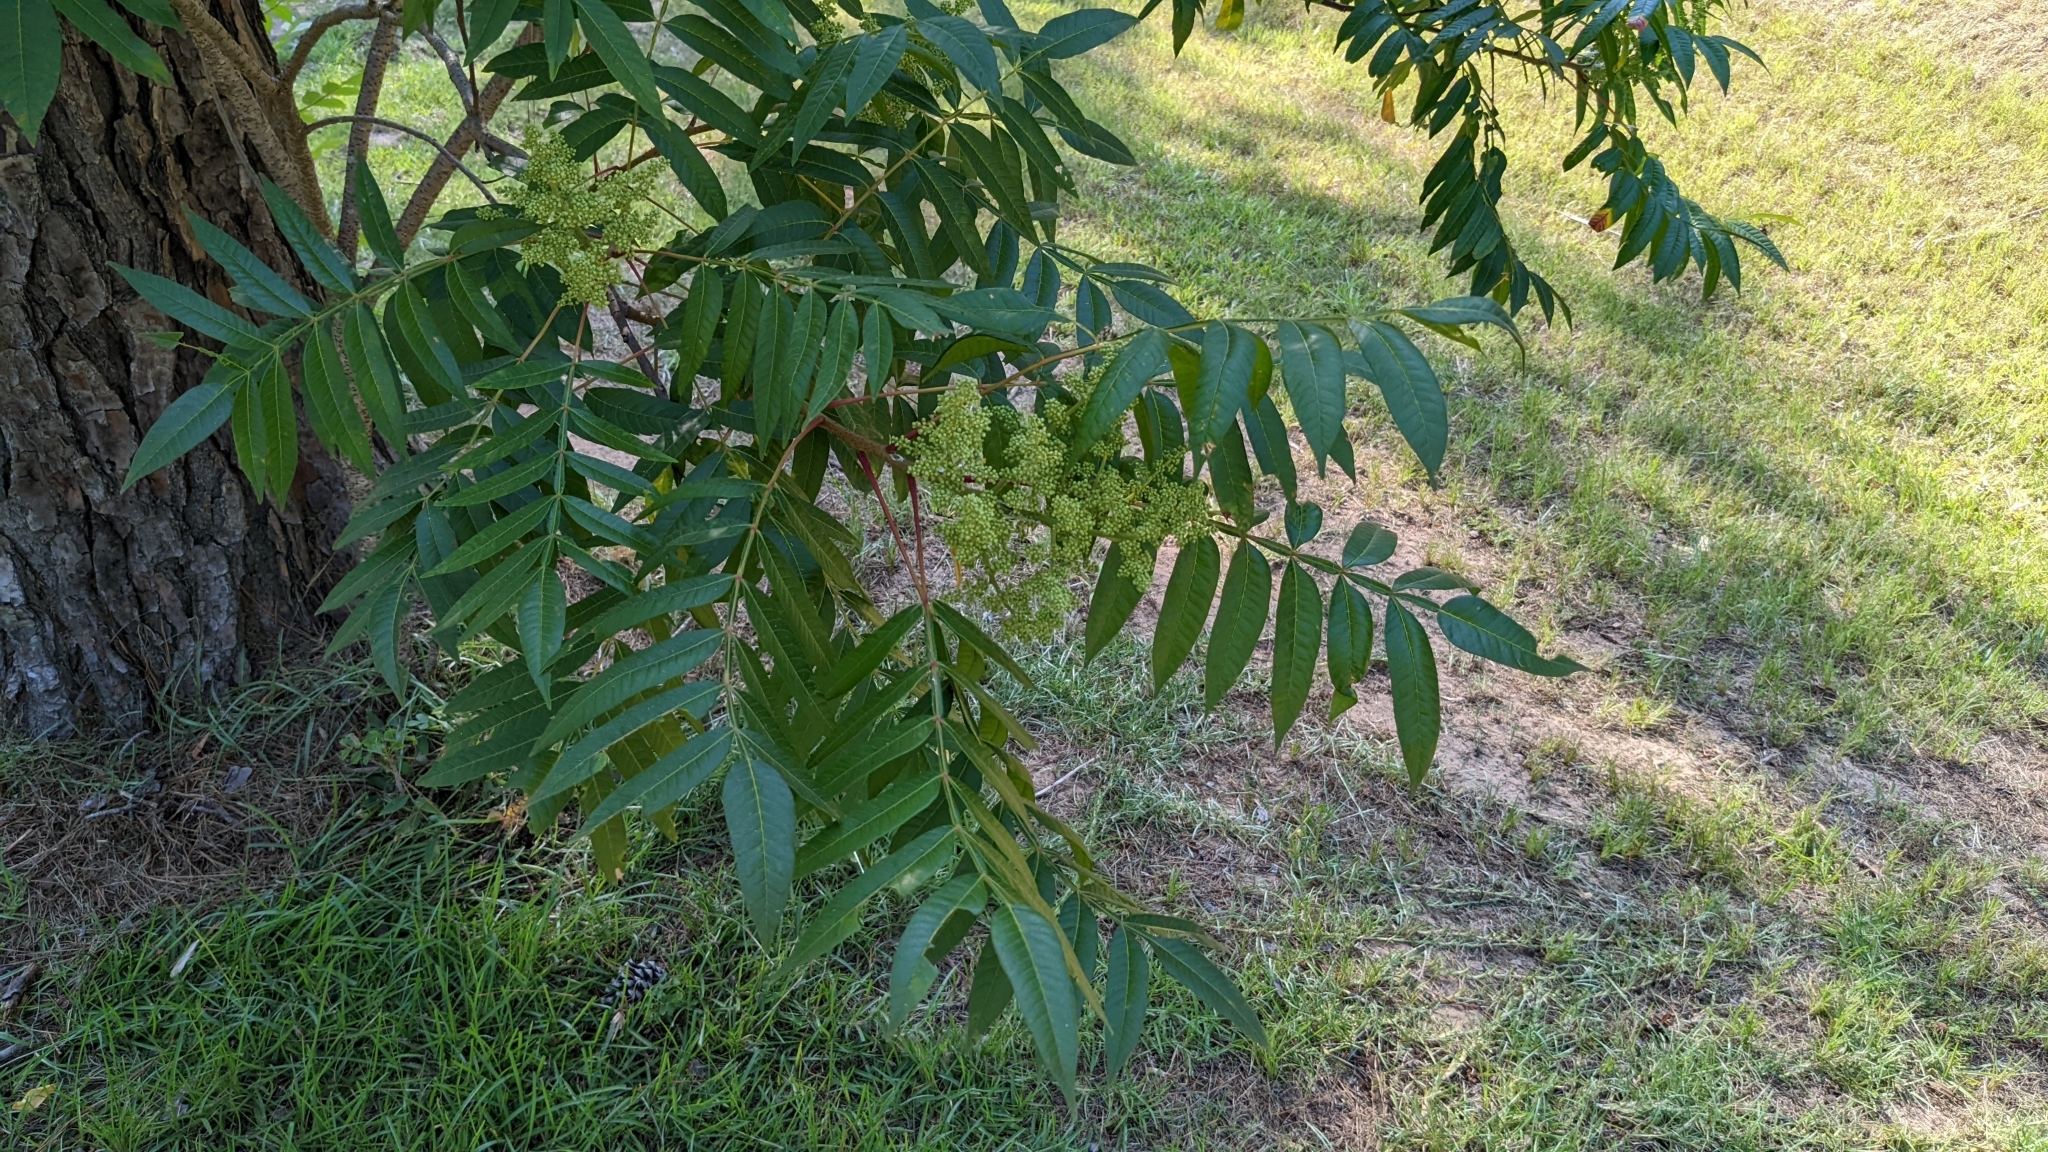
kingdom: Plantae
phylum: Tracheophyta
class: Magnoliopsida
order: Sapindales
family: Anacardiaceae
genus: Rhus
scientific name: Rhus copallina
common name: Shining sumac
